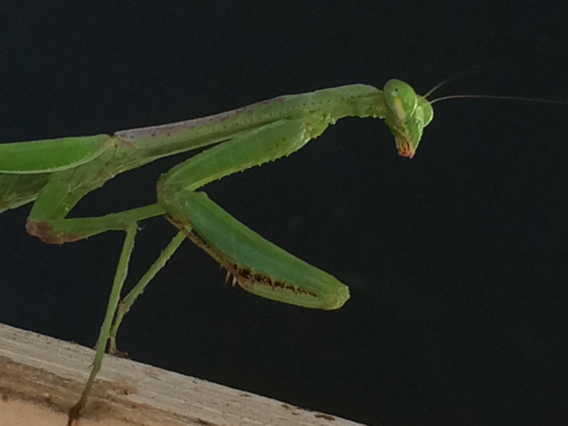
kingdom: Animalia
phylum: Arthropoda
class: Insecta
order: Mantodea
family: Mantidae
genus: Stagmomantis
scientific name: Stagmomantis carolina
